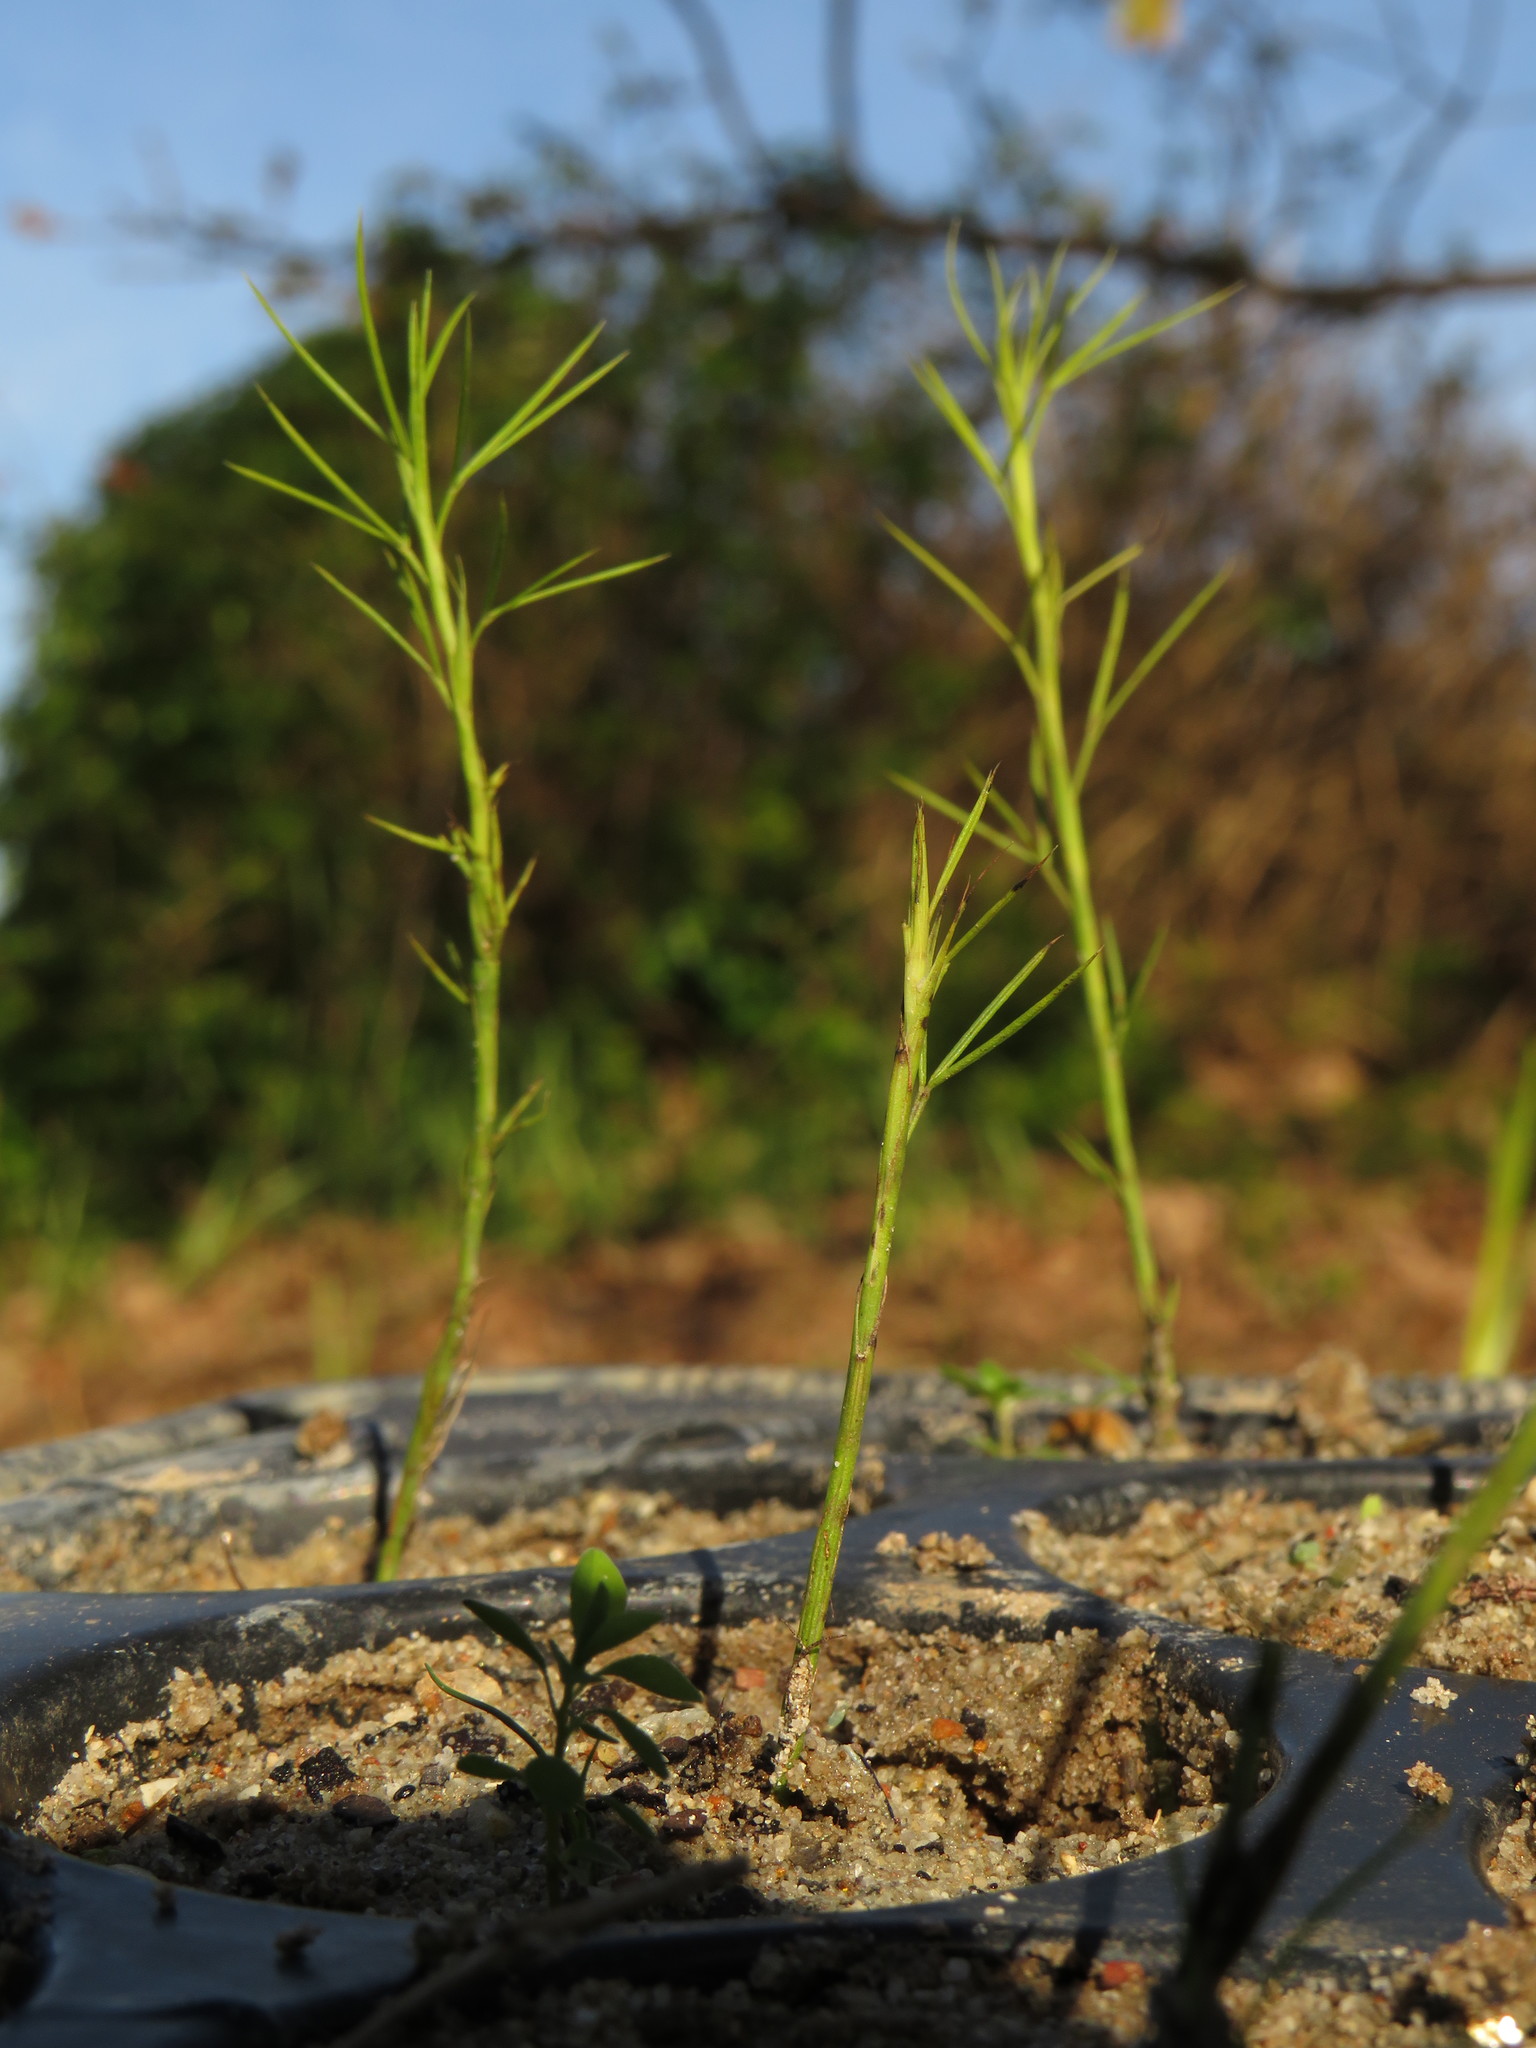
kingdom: Plantae
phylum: Tracheophyta
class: Magnoliopsida
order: Fabales
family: Fabaceae
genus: Psoralea
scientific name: Psoralea fascicularis
